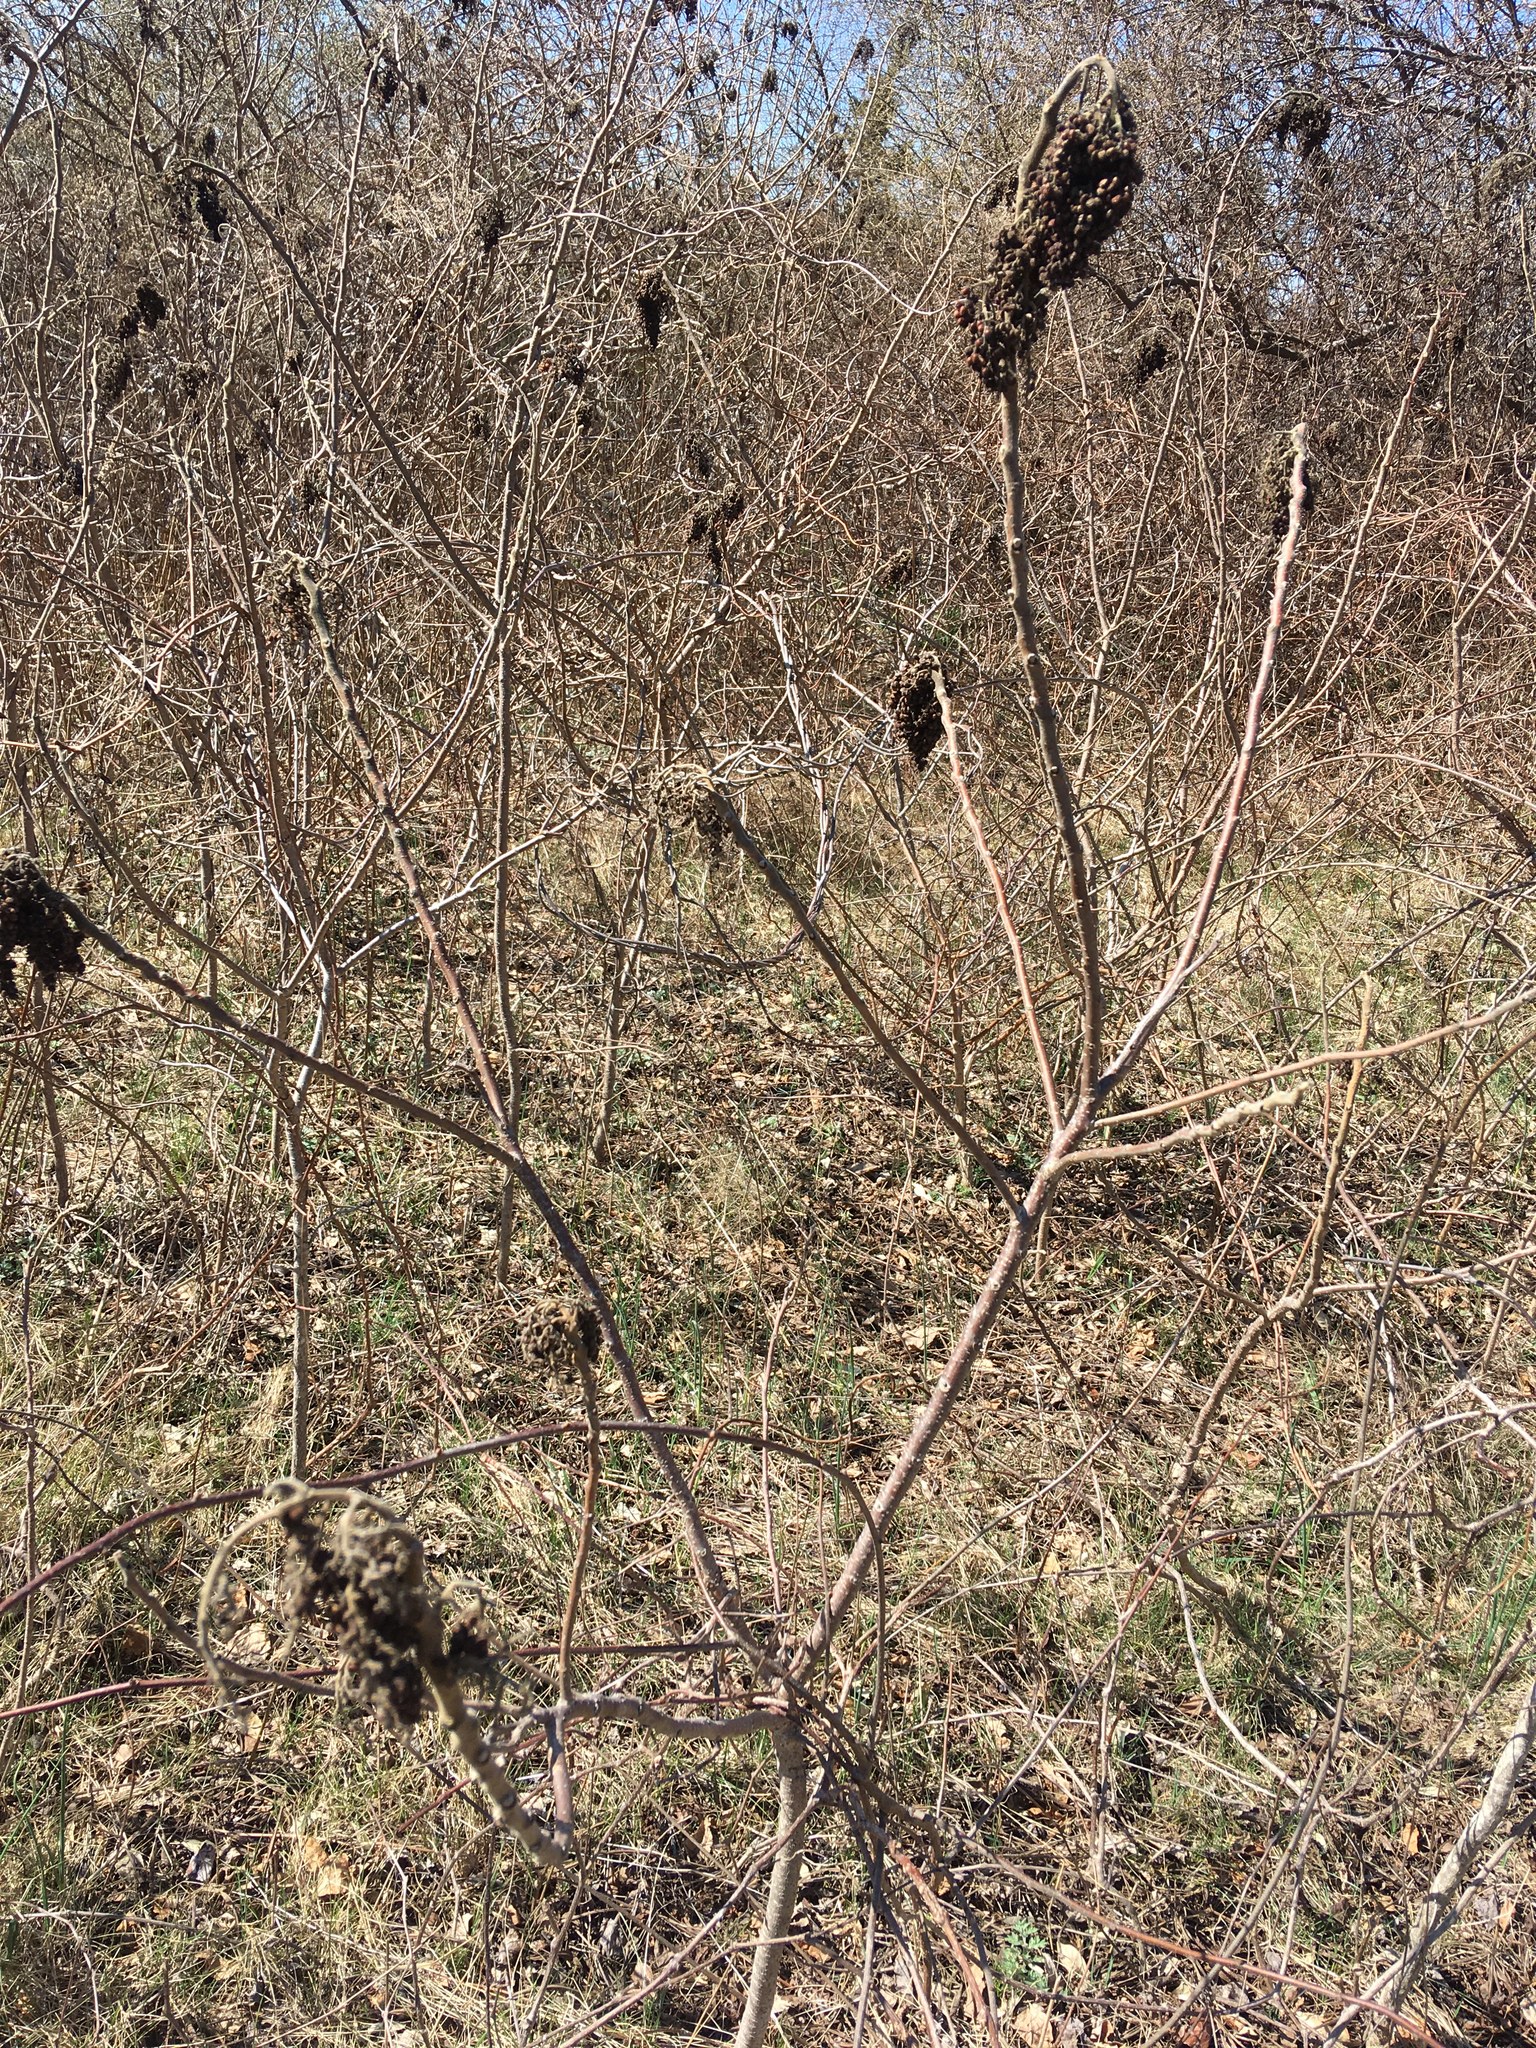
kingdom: Plantae
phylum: Tracheophyta
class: Magnoliopsida
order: Sapindales
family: Anacardiaceae
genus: Rhus
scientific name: Rhus copallina
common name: Shining sumac
